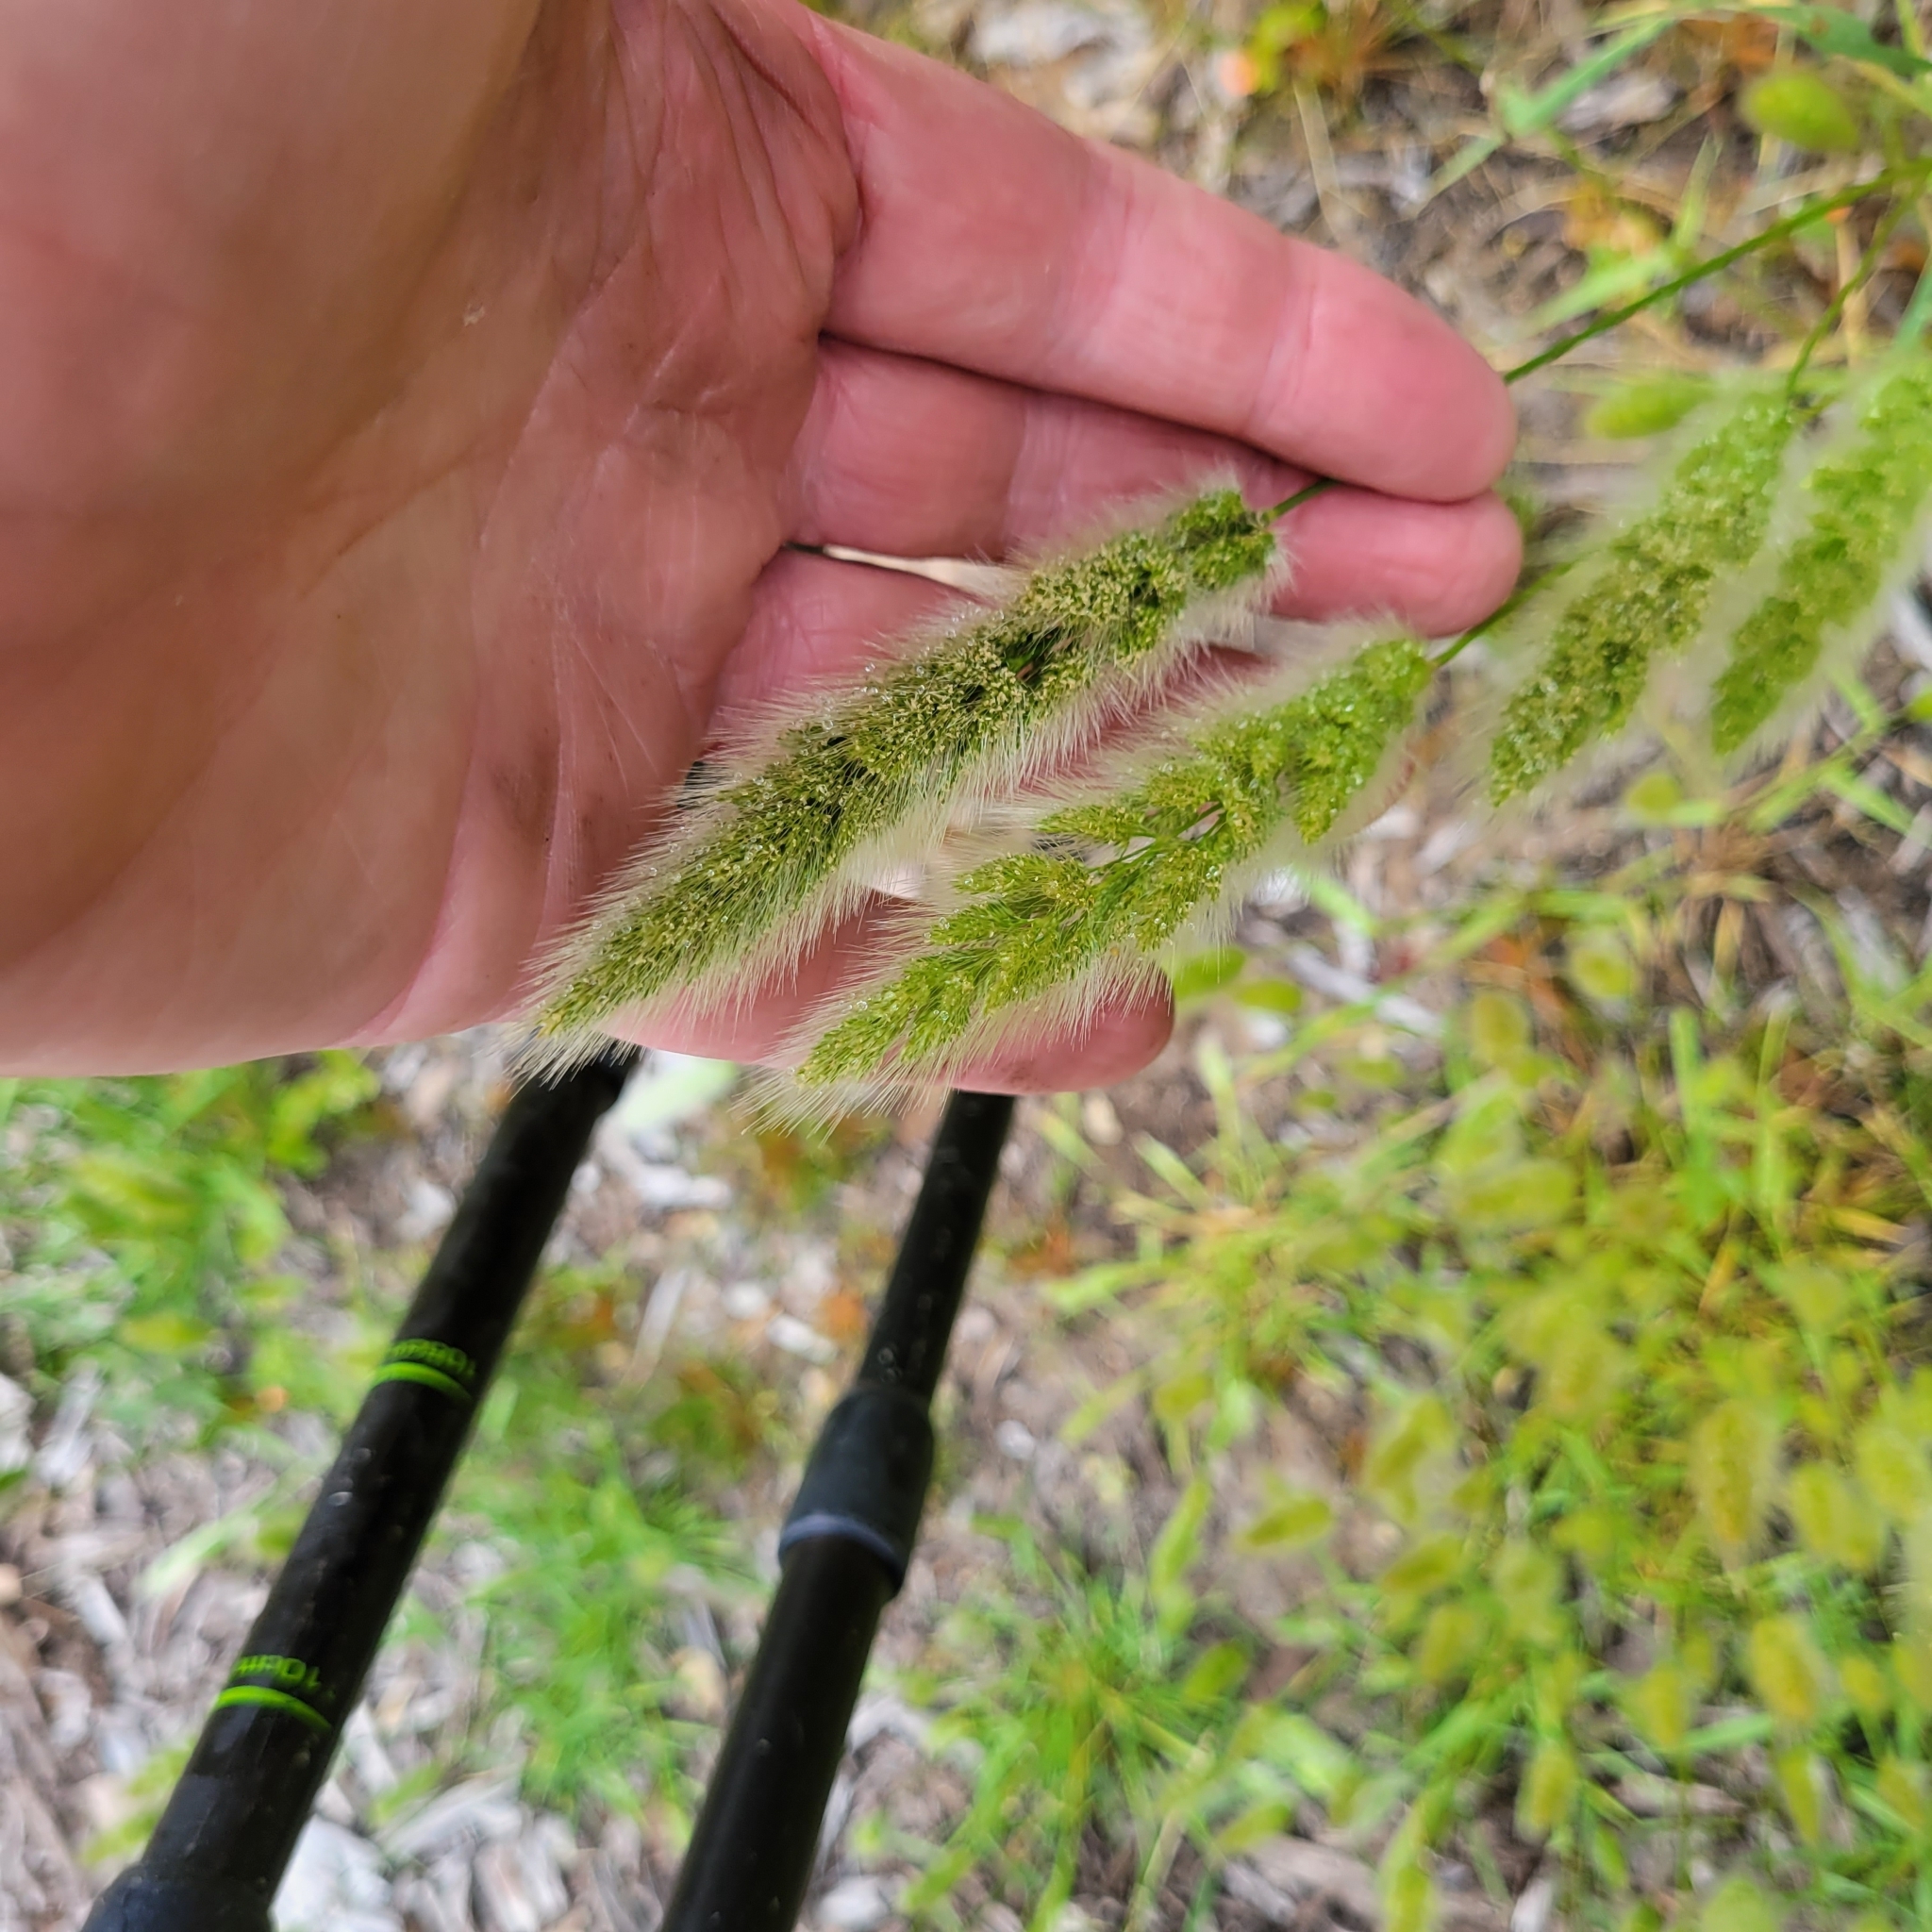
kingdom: Plantae
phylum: Tracheophyta
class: Liliopsida
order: Poales
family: Poaceae
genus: Polypogon
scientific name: Polypogon monspeliensis
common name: Annual rabbitsfoot grass
